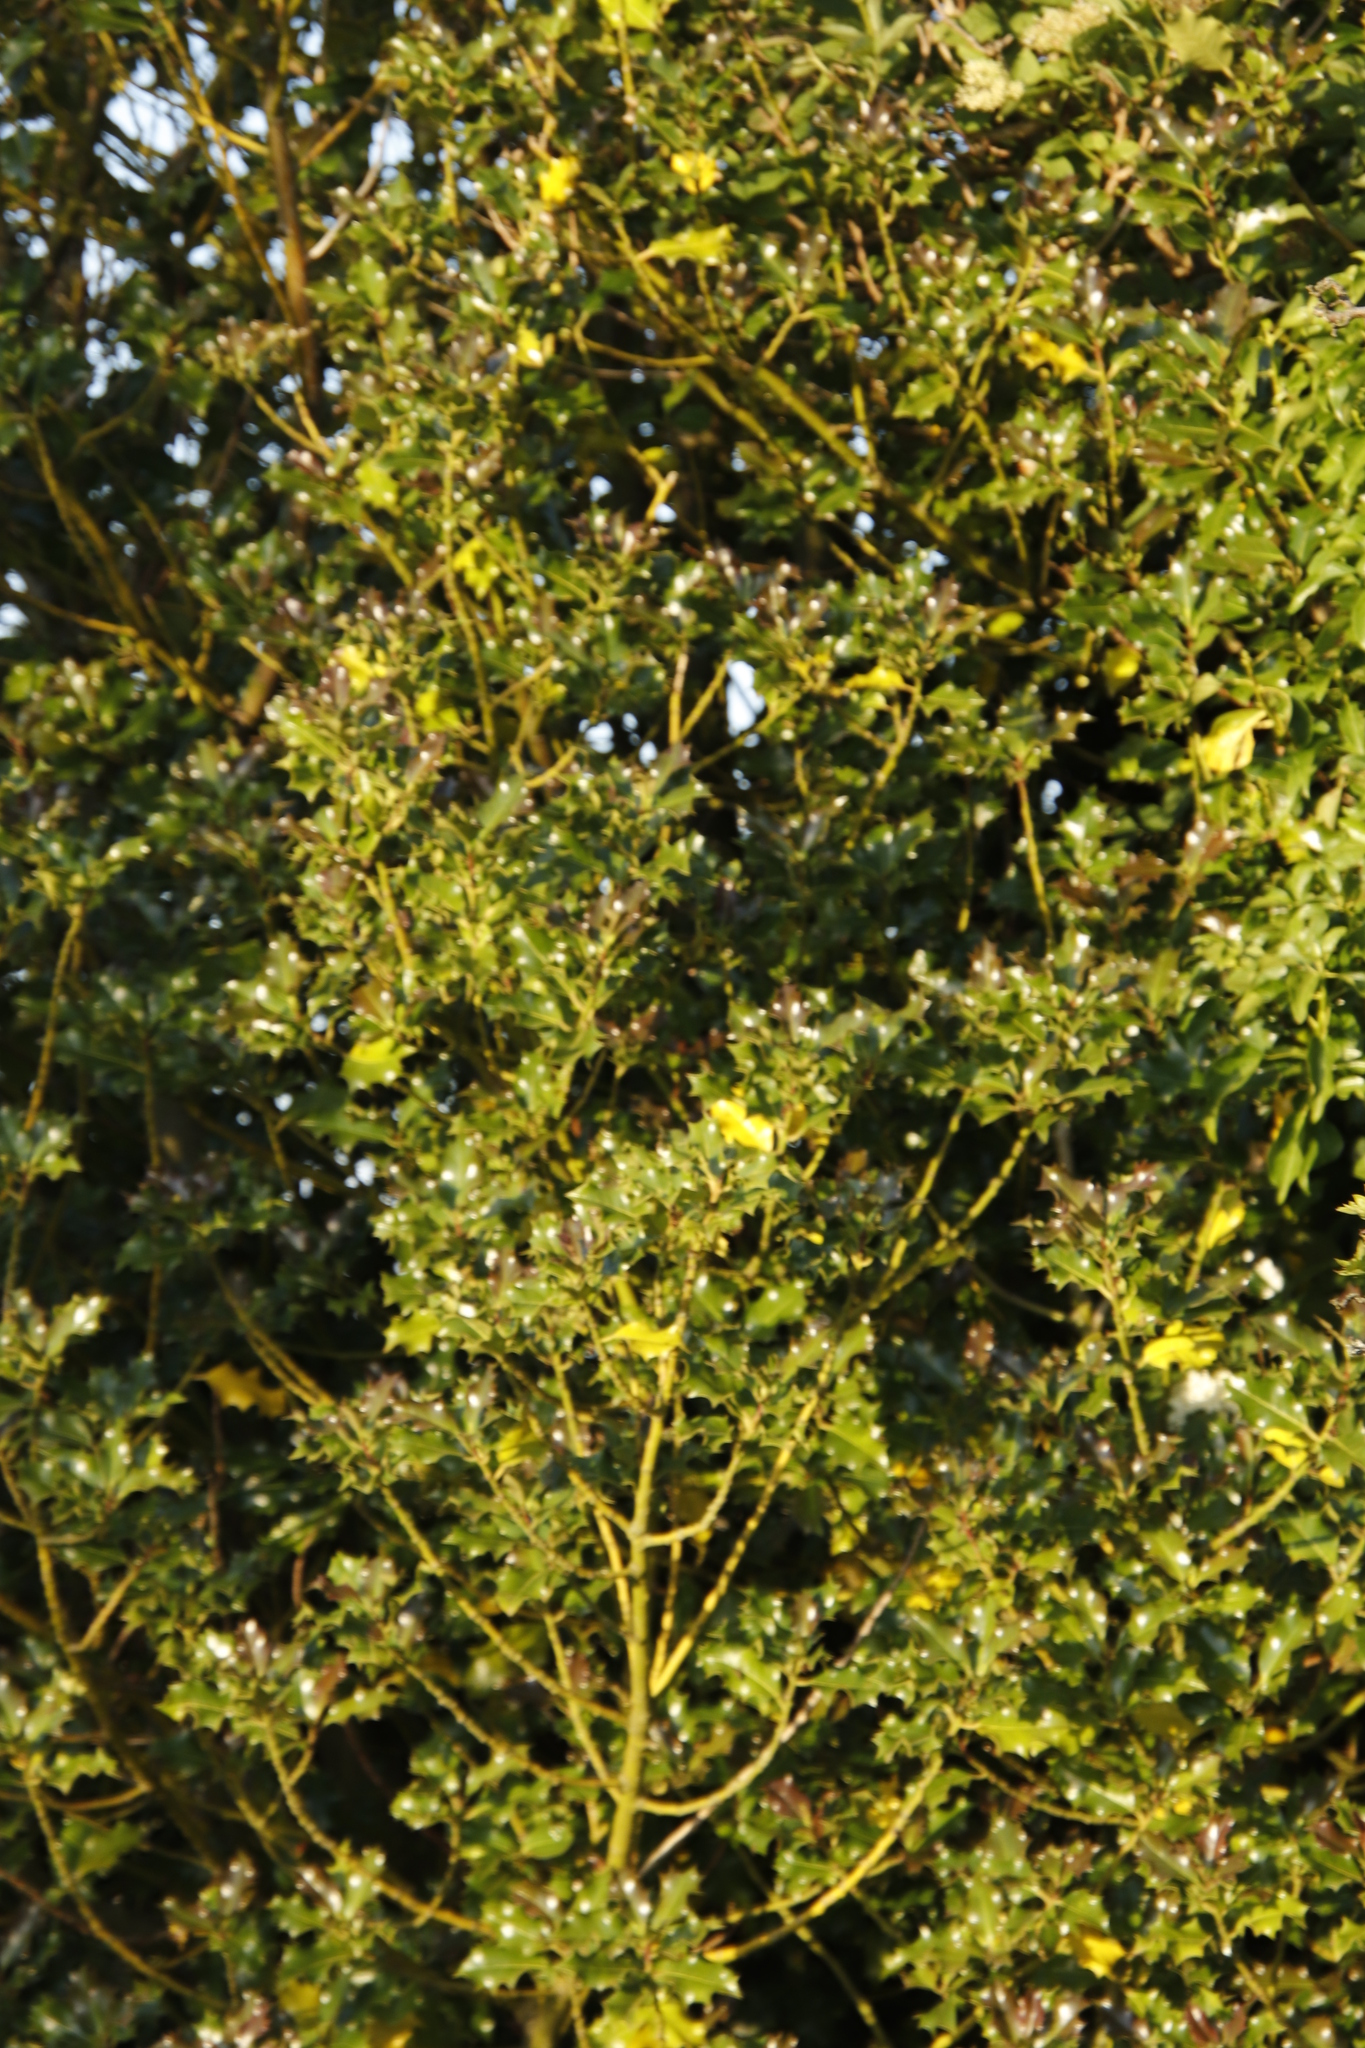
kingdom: Plantae
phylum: Tracheophyta
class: Magnoliopsida
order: Aquifoliales
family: Aquifoliaceae
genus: Ilex
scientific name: Ilex aquifolium
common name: English holly
